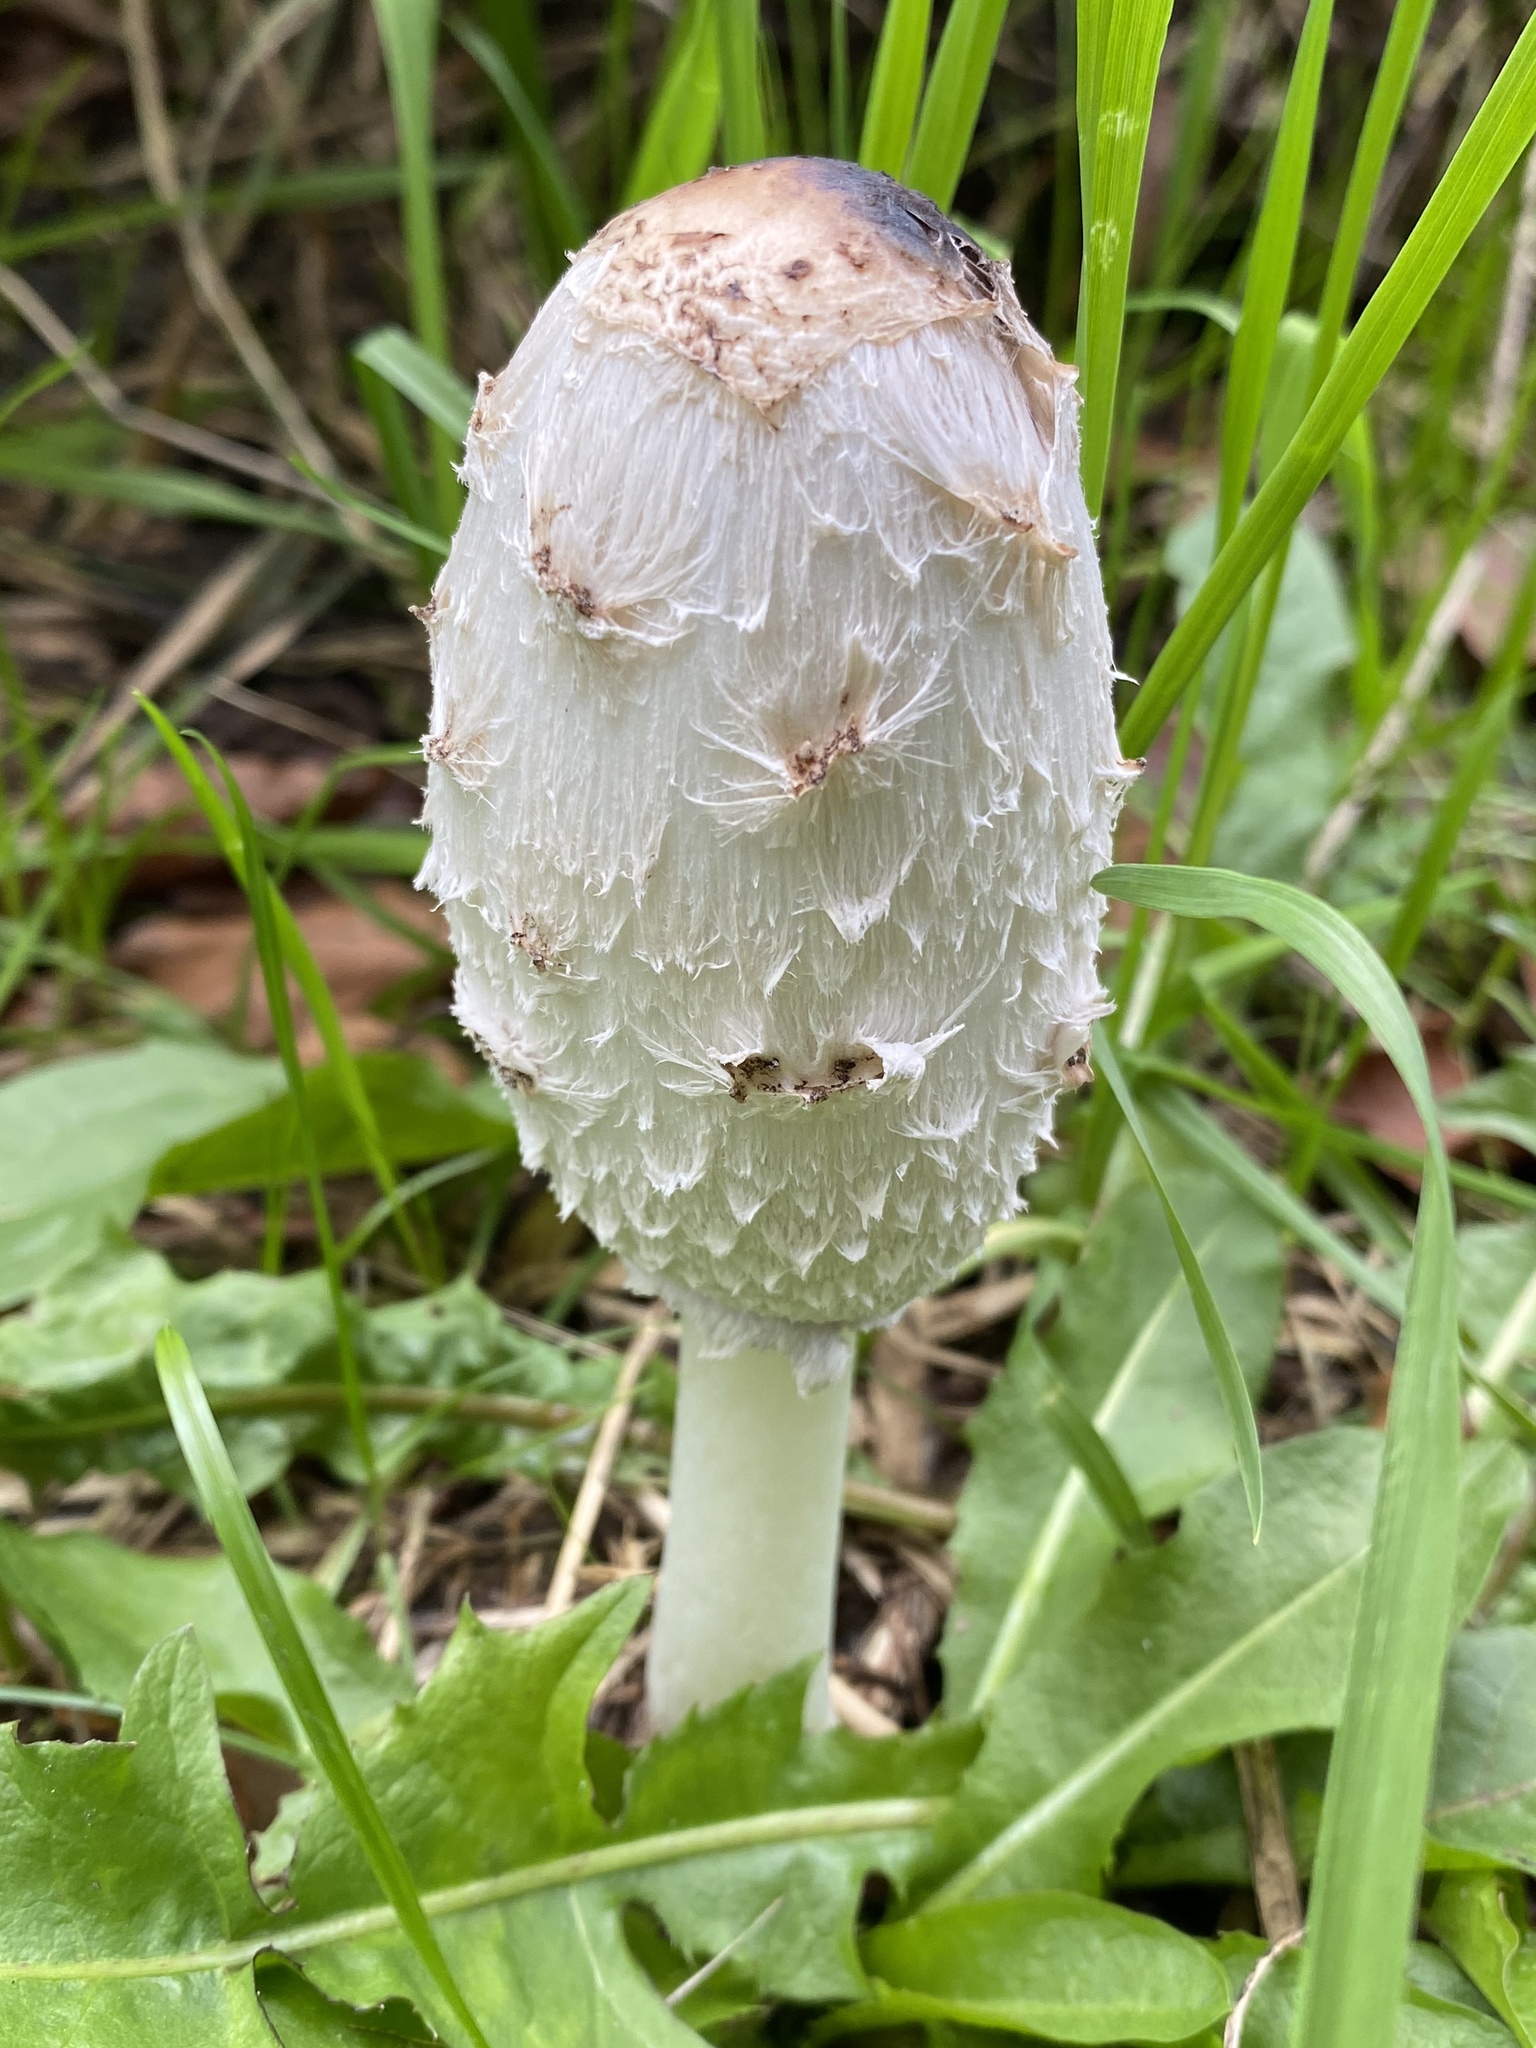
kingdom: Fungi
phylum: Basidiomycota
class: Agaricomycetes
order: Agaricales
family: Agaricaceae
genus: Coprinus
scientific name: Coprinus comatus
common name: Lawyer's wig
